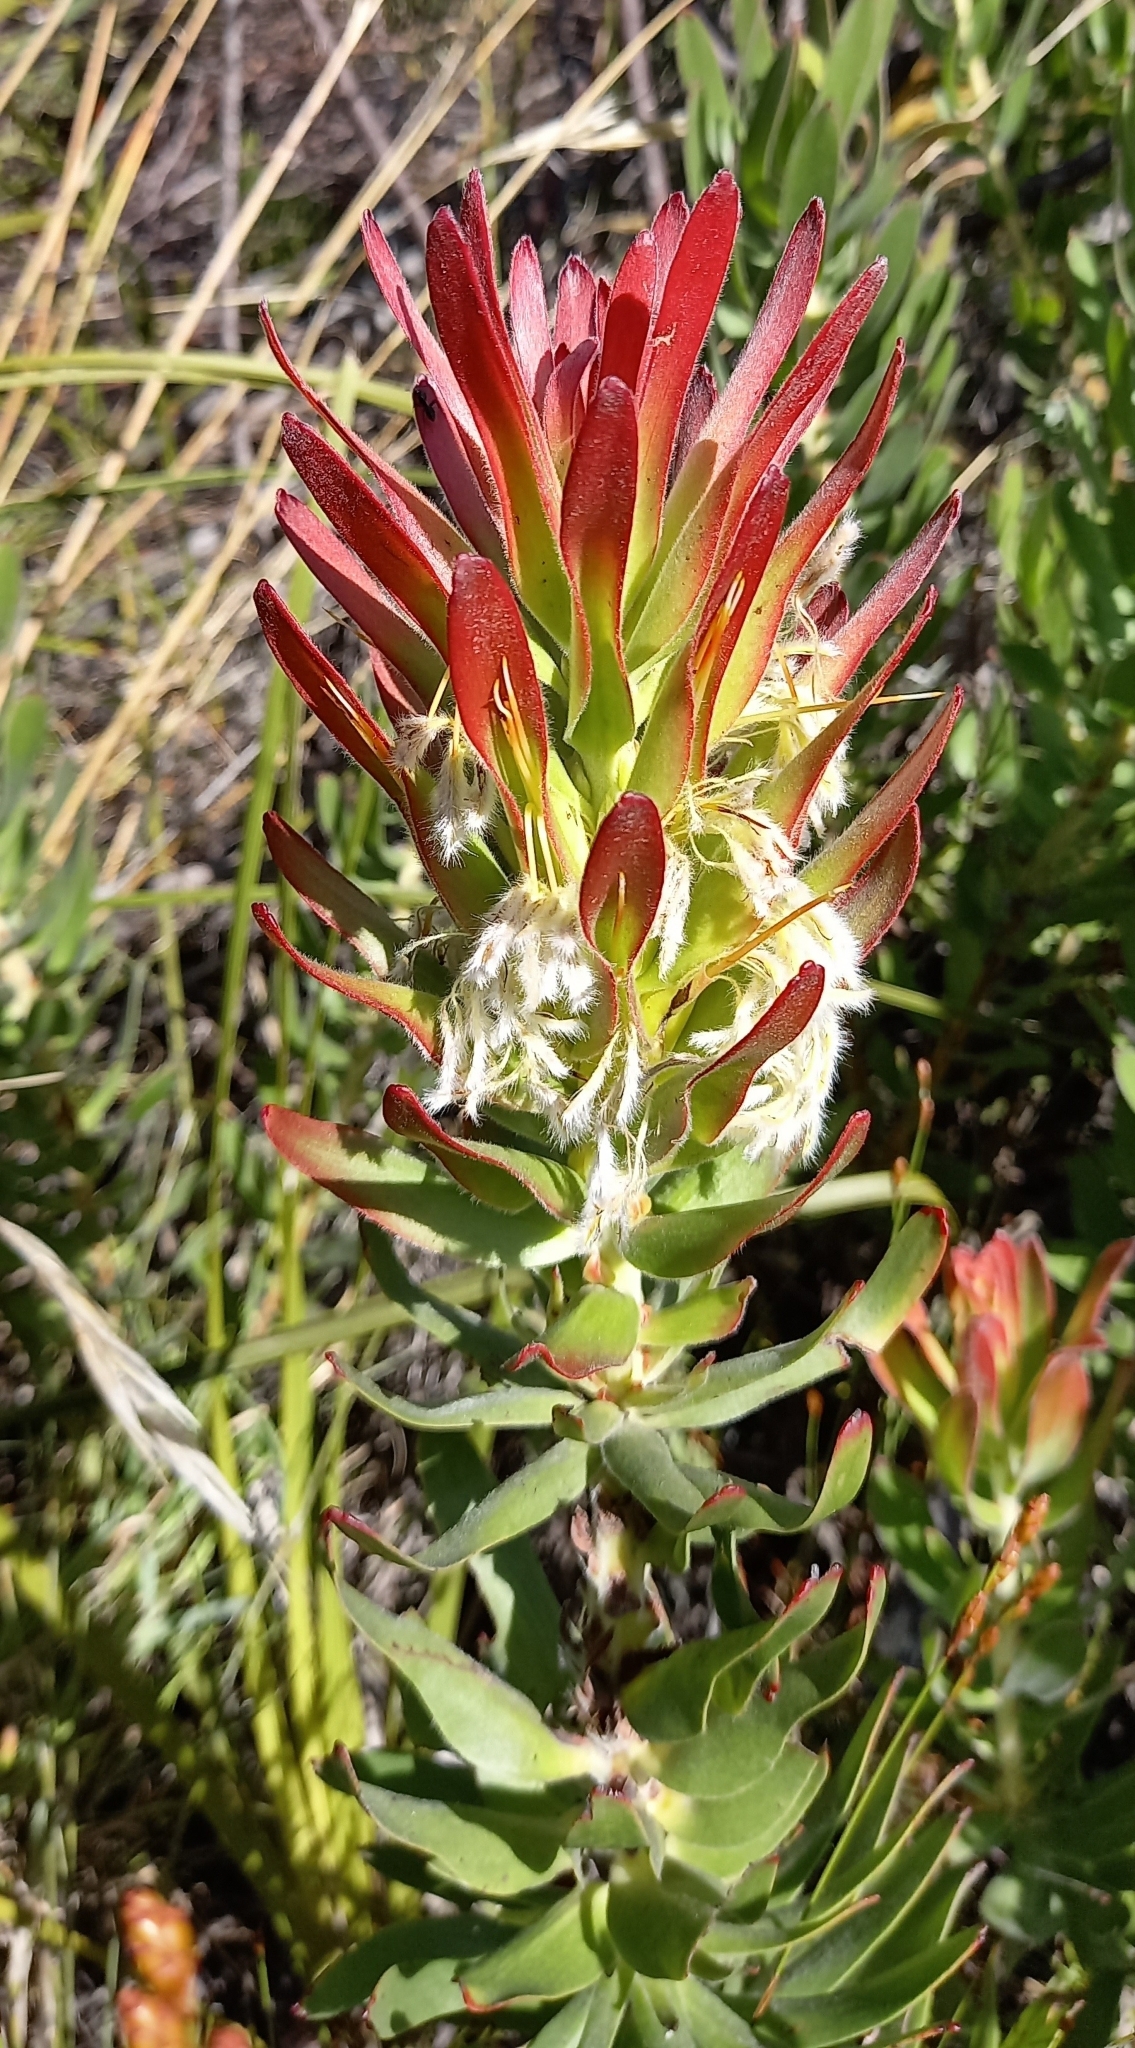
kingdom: Plantae
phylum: Tracheophyta
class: Magnoliopsida
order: Proteales
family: Proteaceae
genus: Mimetes
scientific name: Mimetes cucullatus
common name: Common pagoda
